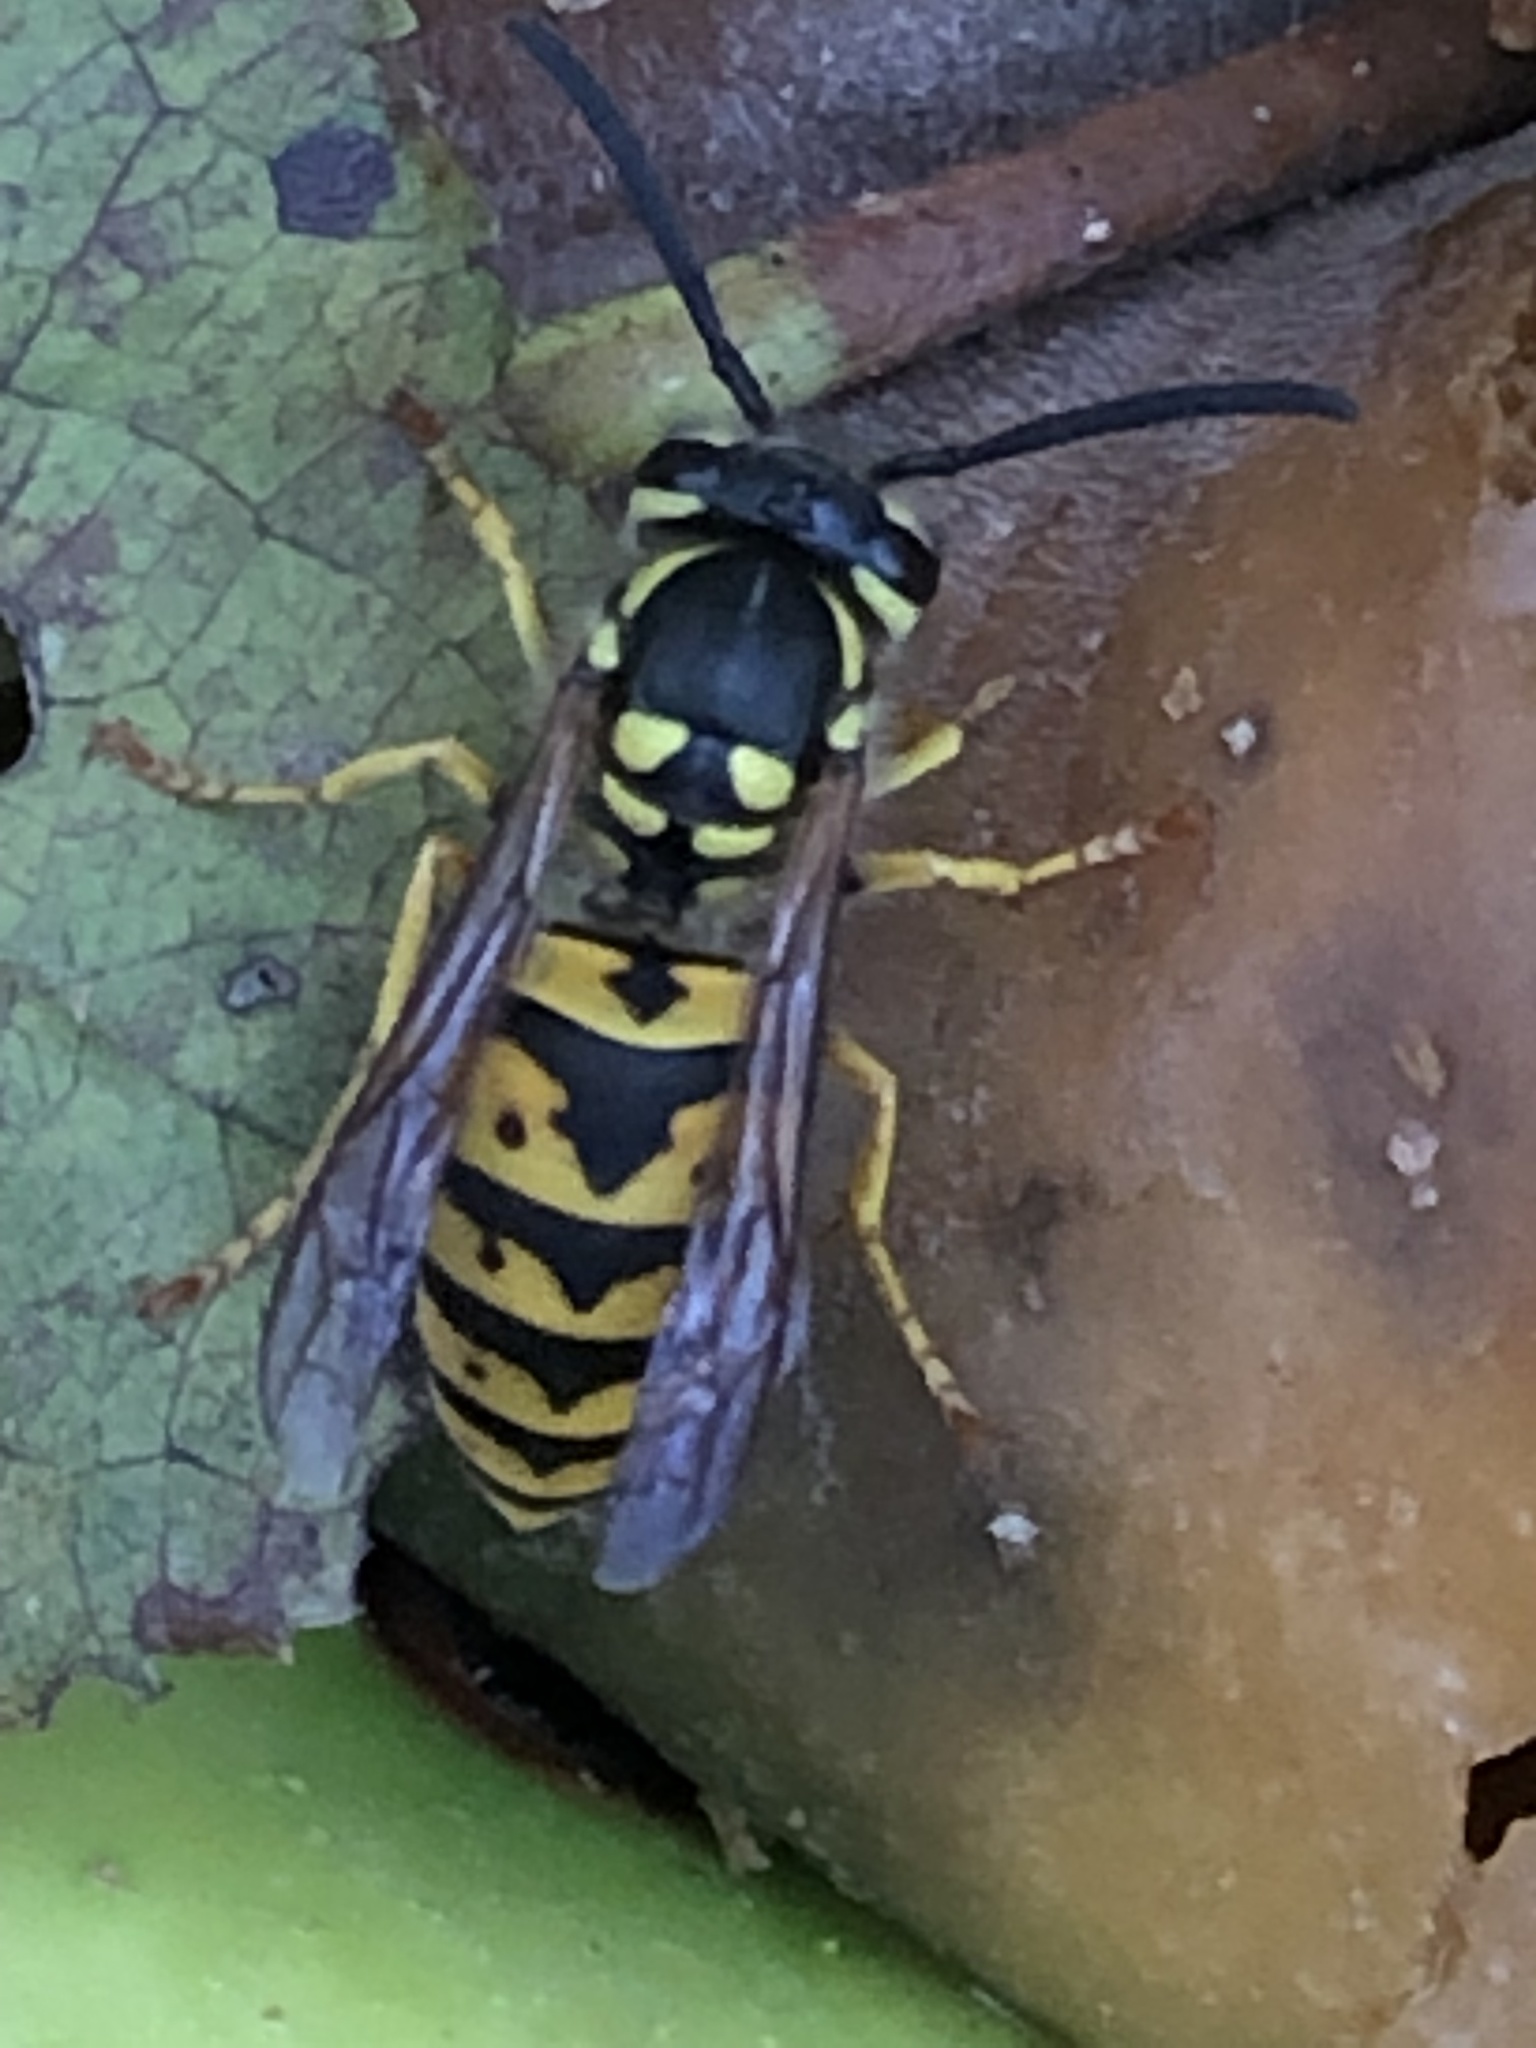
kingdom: Animalia
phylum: Arthropoda
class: Insecta
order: Hymenoptera
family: Vespidae
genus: Vespula
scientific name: Vespula germanica
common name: German wasp
